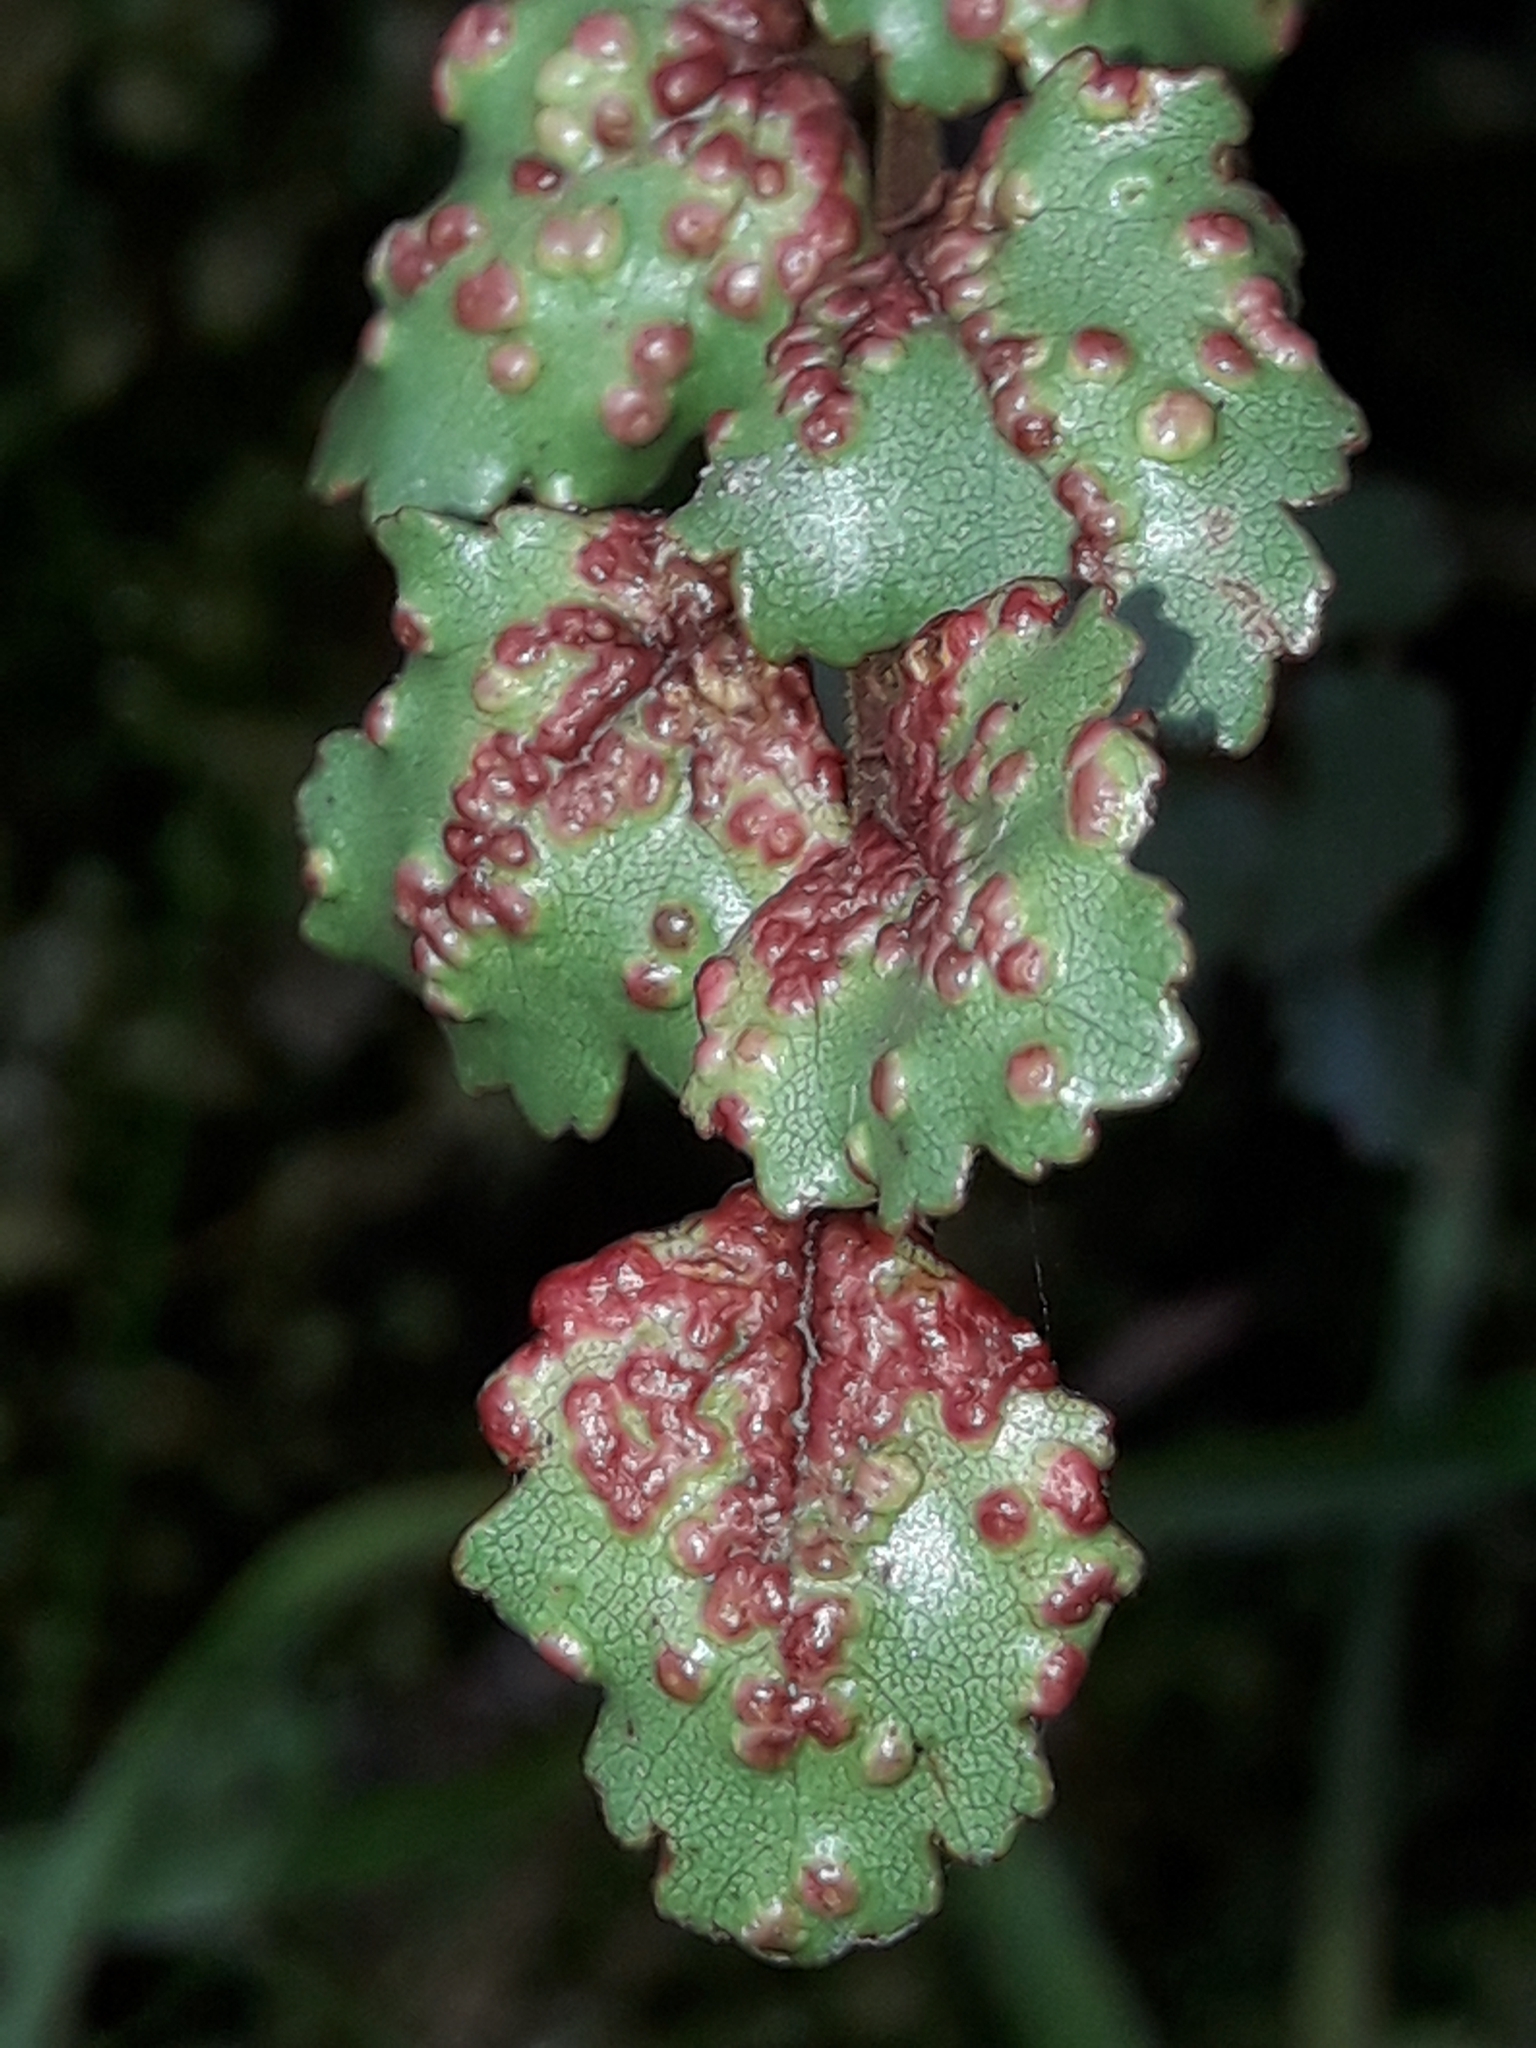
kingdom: Plantae
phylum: Tracheophyta
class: Magnoliopsida
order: Fagales
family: Nothofagaceae
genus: Nothofagus
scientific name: Nothofagus menziesii
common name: Silver beech
